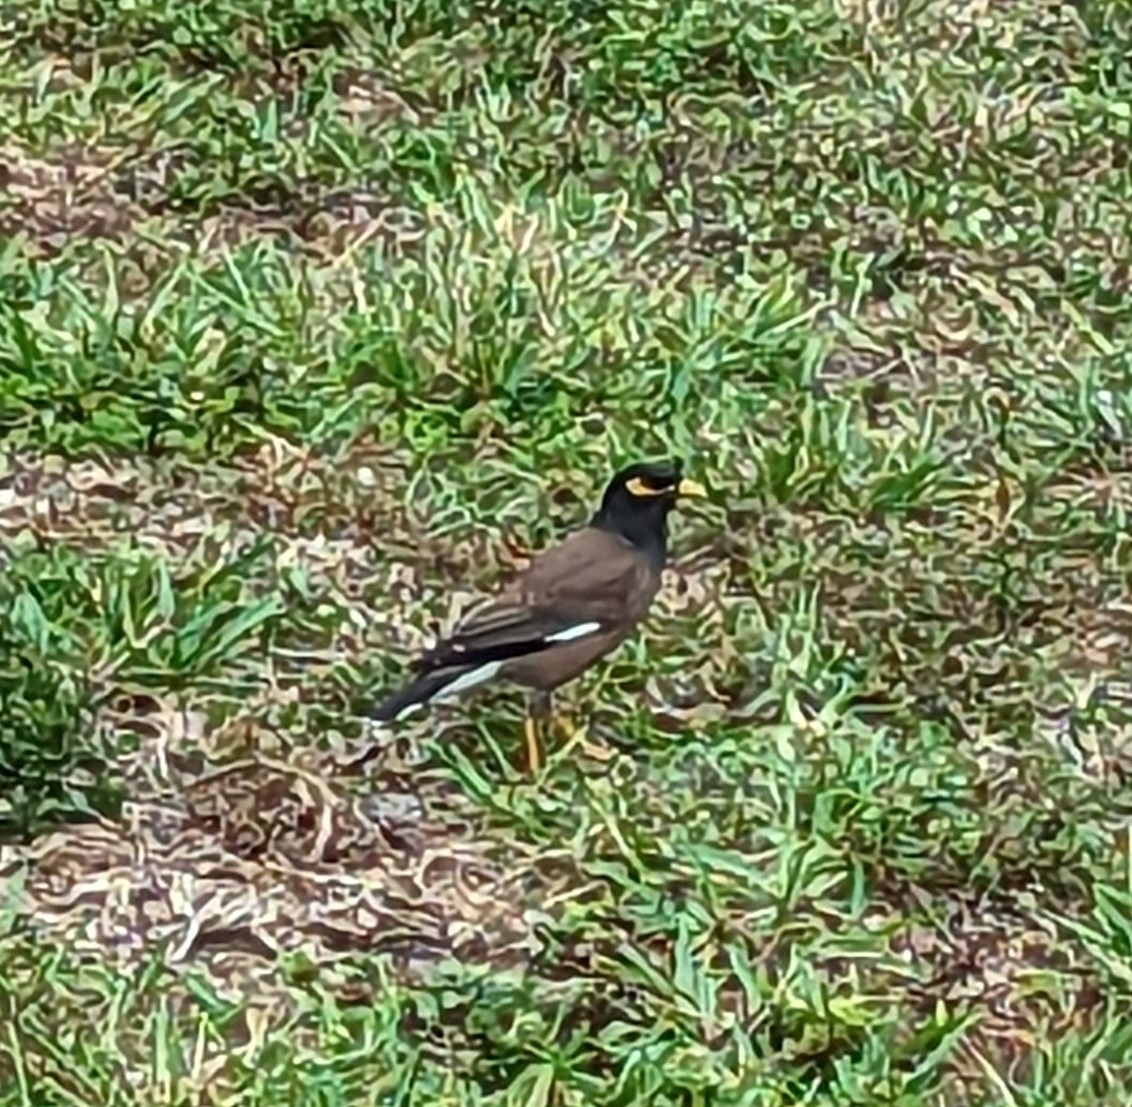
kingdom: Animalia
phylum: Chordata
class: Aves
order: Passeriformes
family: Sturnidae
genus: Acridotheres
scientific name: Acridotheres tristis
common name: Common myna
